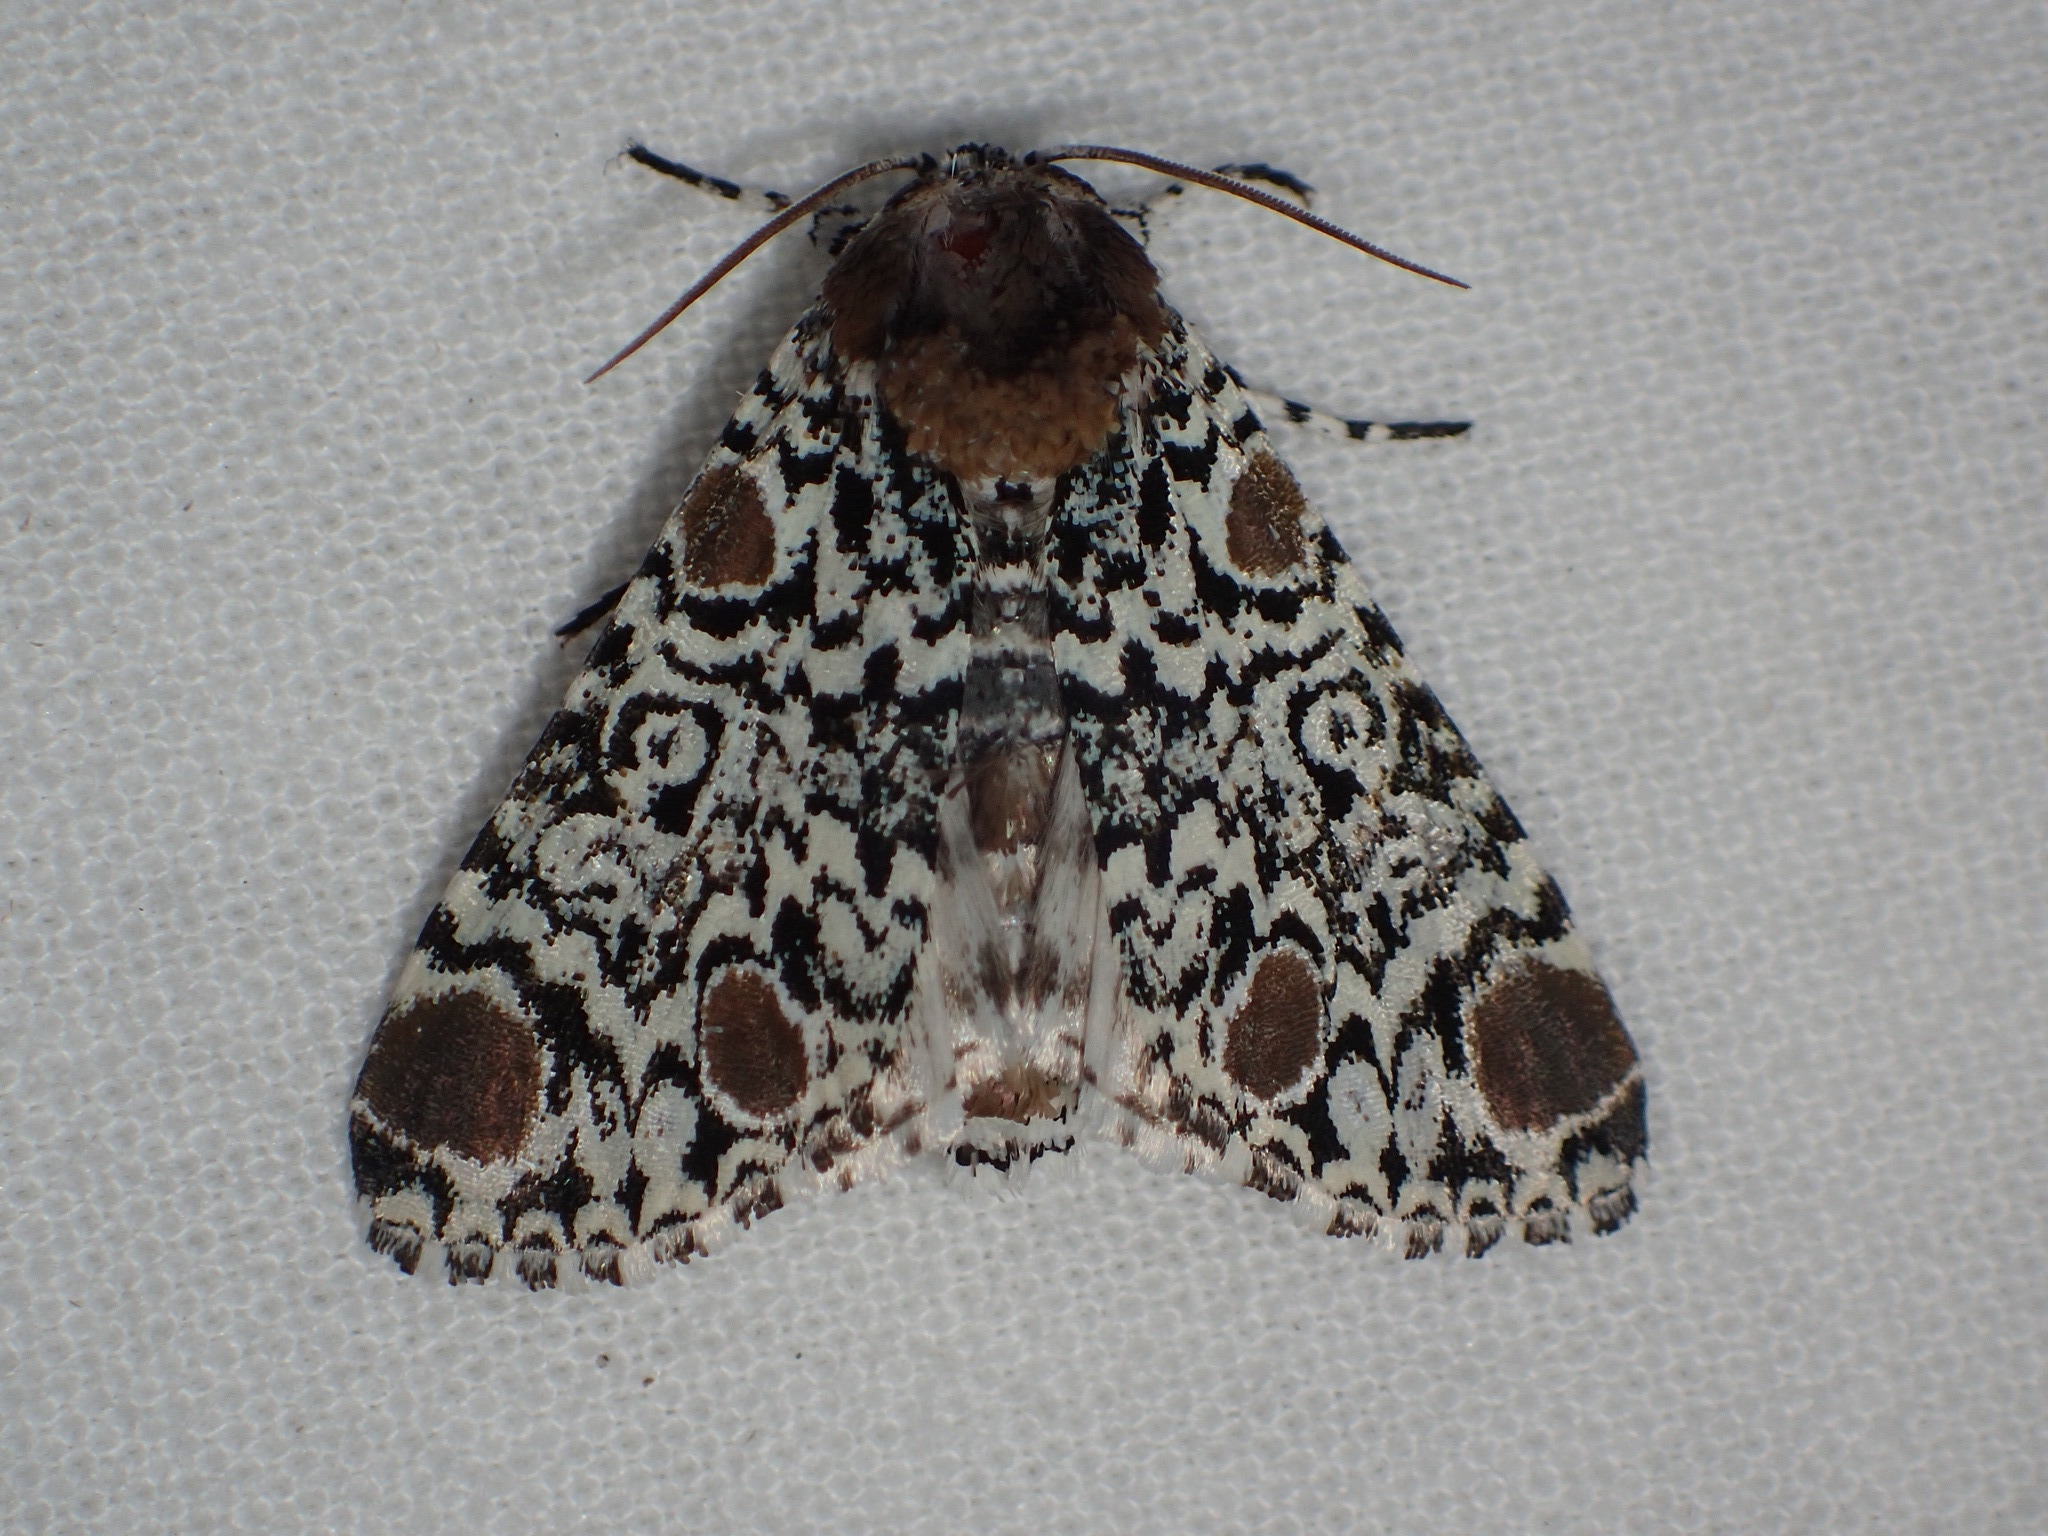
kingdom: Animalia
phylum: Arthropoda
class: Insecta
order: Lepidoptera
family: Noctuidae
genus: Harrisimemna
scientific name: Harrisimemna trisignata
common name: Harris threespot
